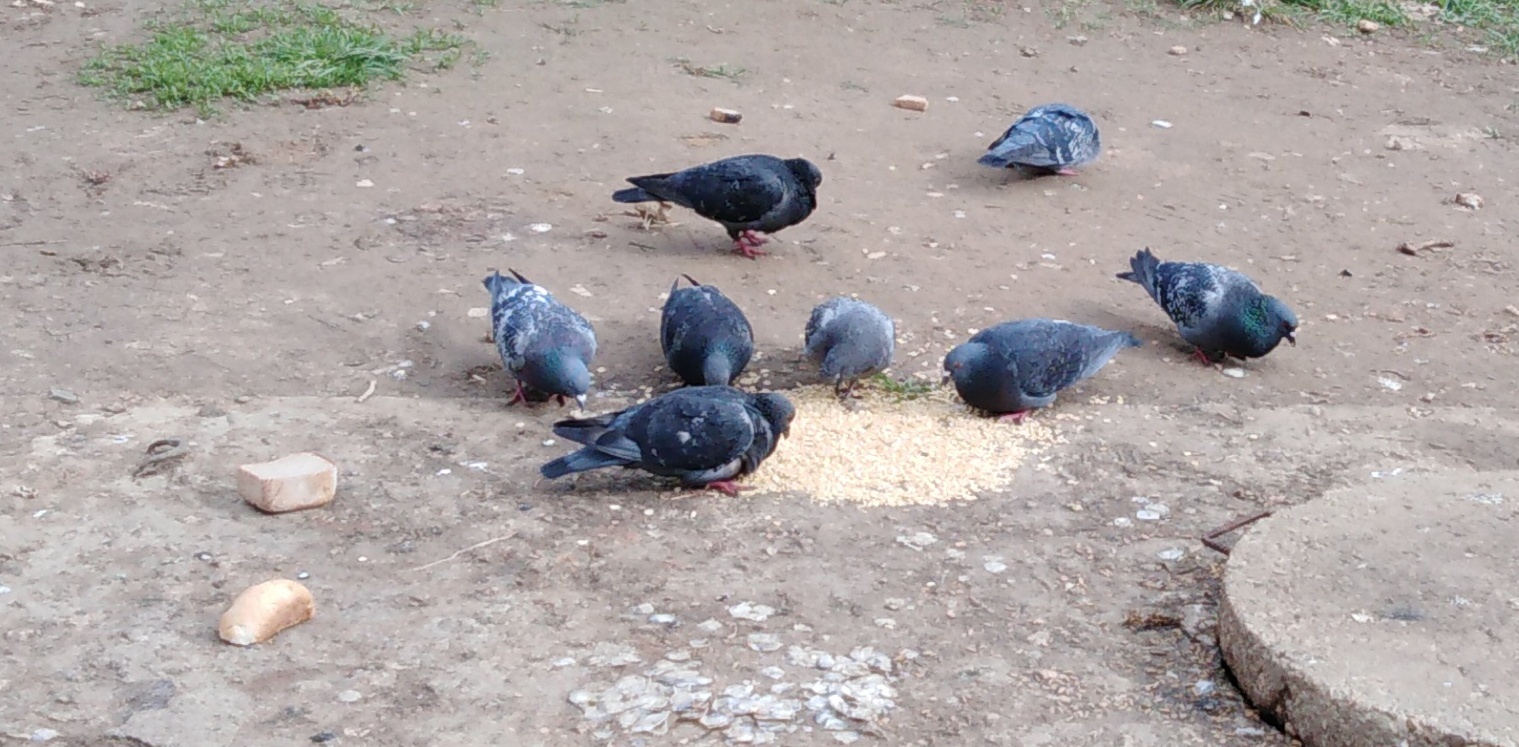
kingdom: Animalia
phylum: Chordata
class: Aves
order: Columbiformes
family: Columbidae
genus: Columba
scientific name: Columba livia
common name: Rock pigeon
